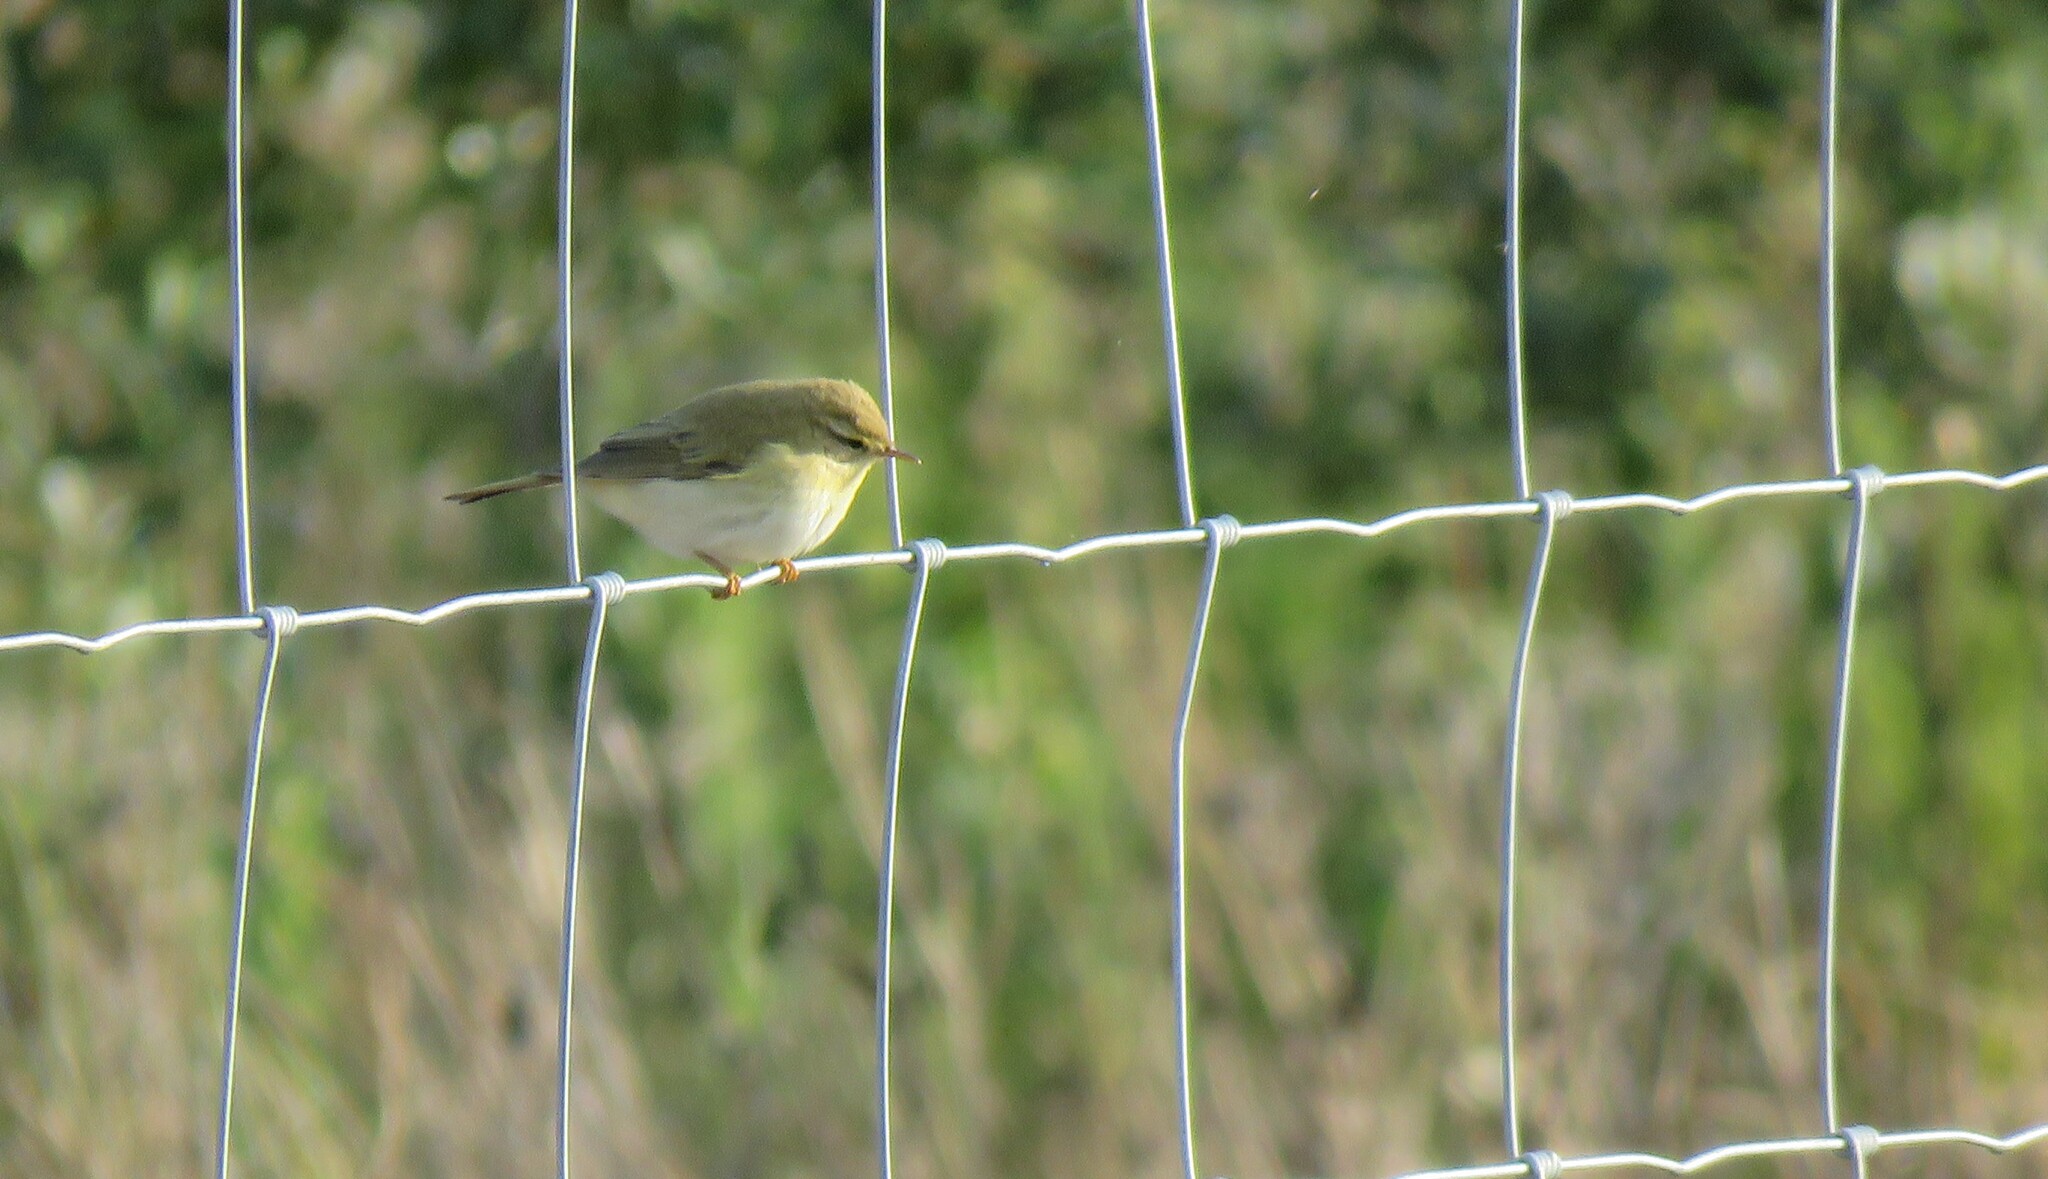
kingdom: Animalia
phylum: Chordata
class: Aves
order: Passeriformes
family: Phylloscopidae
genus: Phylloscopus
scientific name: Phylloscopus trochilus
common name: Willow warbler
